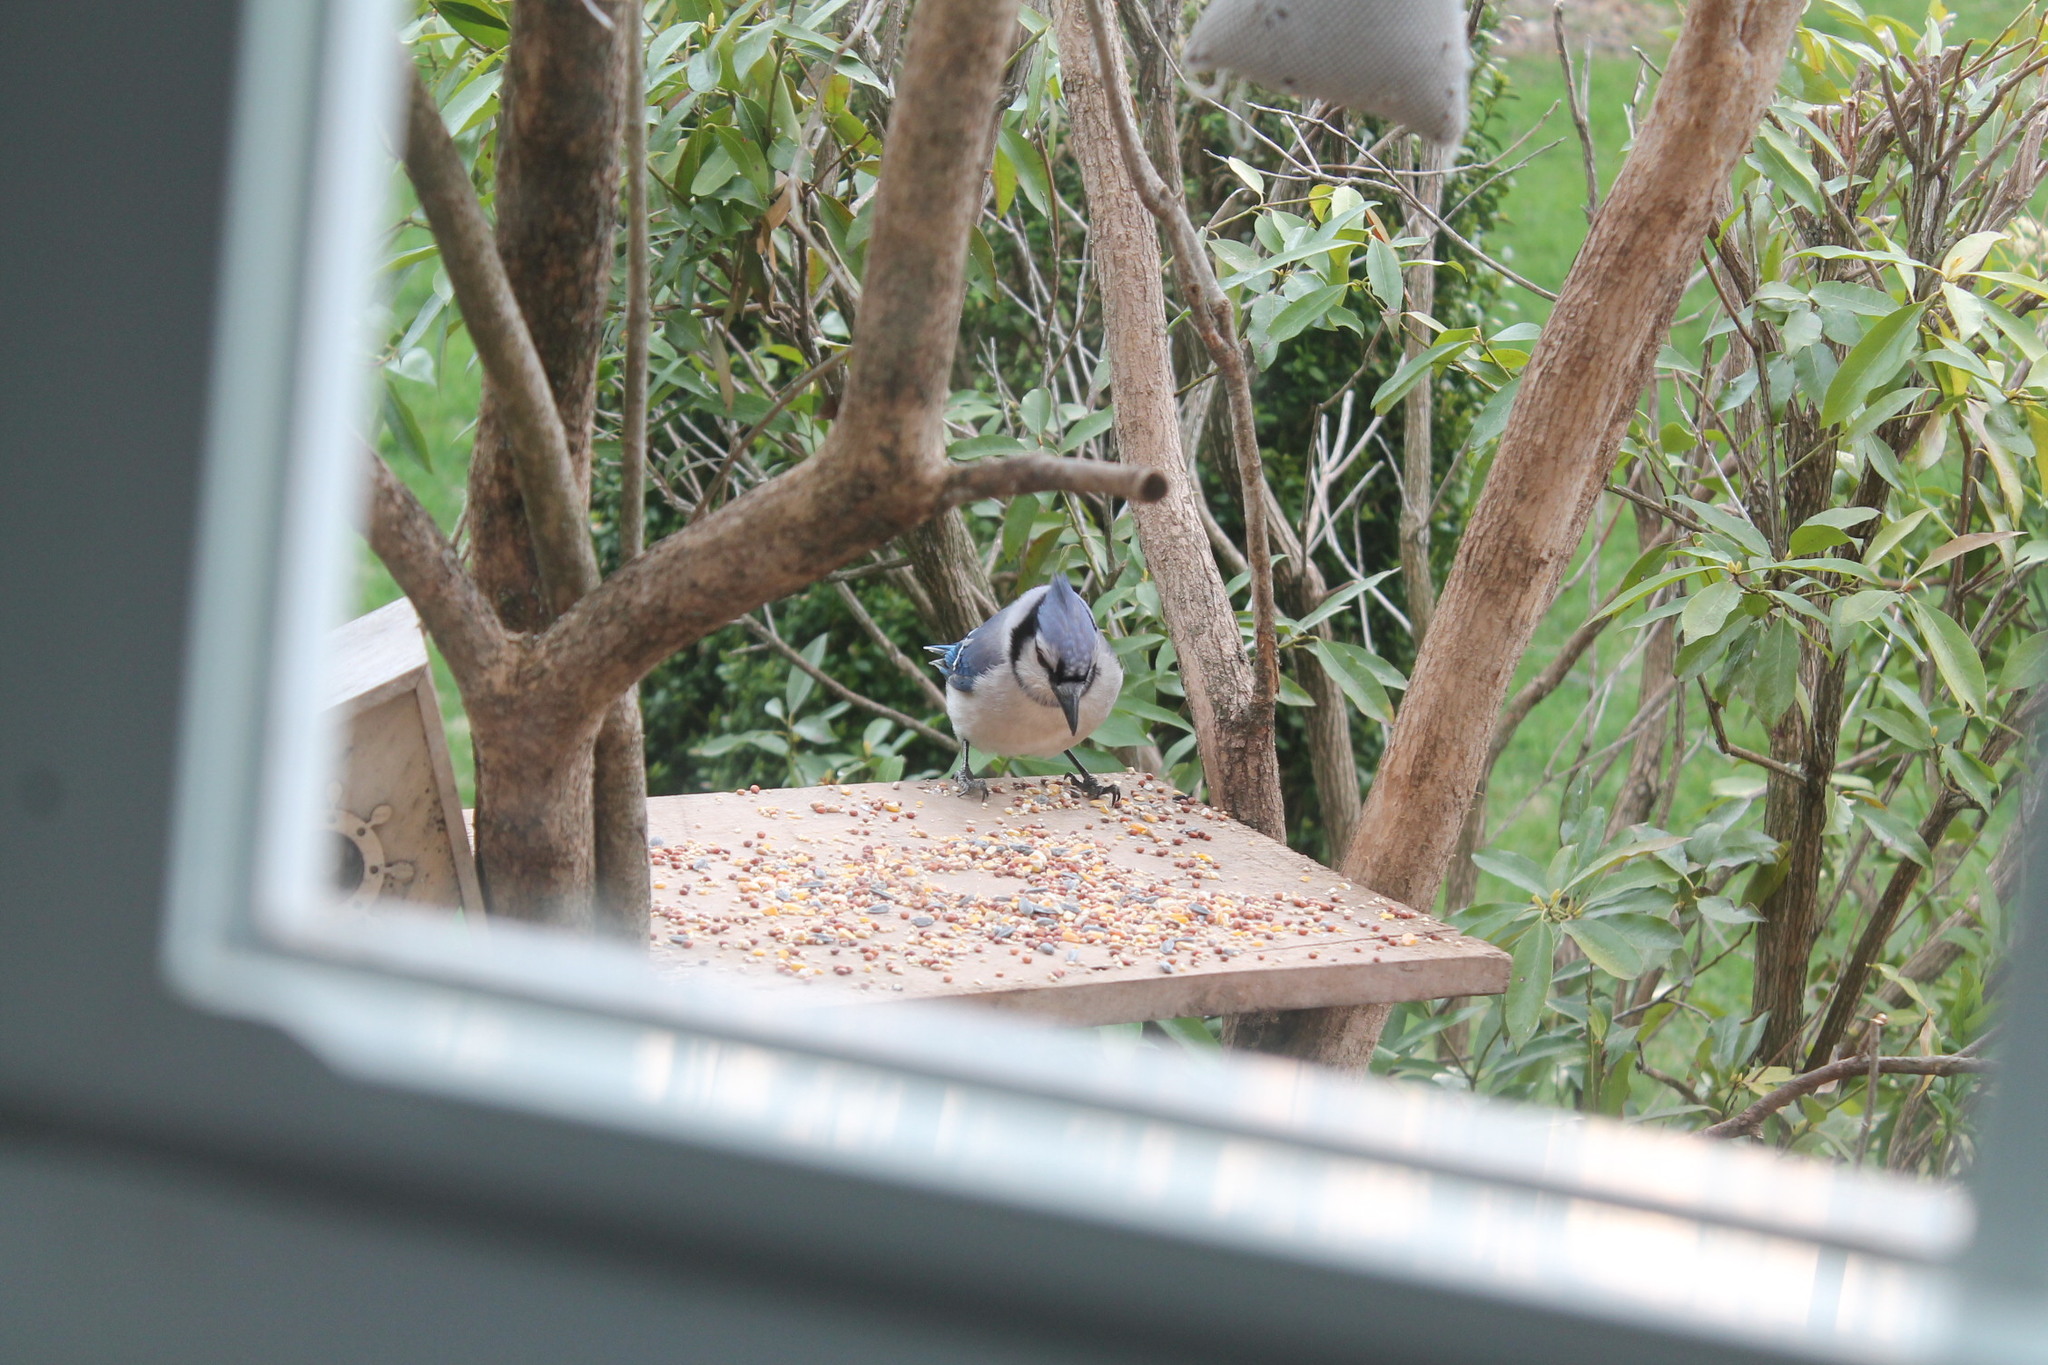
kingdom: Animalia
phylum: Chordata
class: Aves
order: Passeriformes
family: Corvidae
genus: Cyanocitta
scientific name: Cyanocitta cristata
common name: Blue jay
